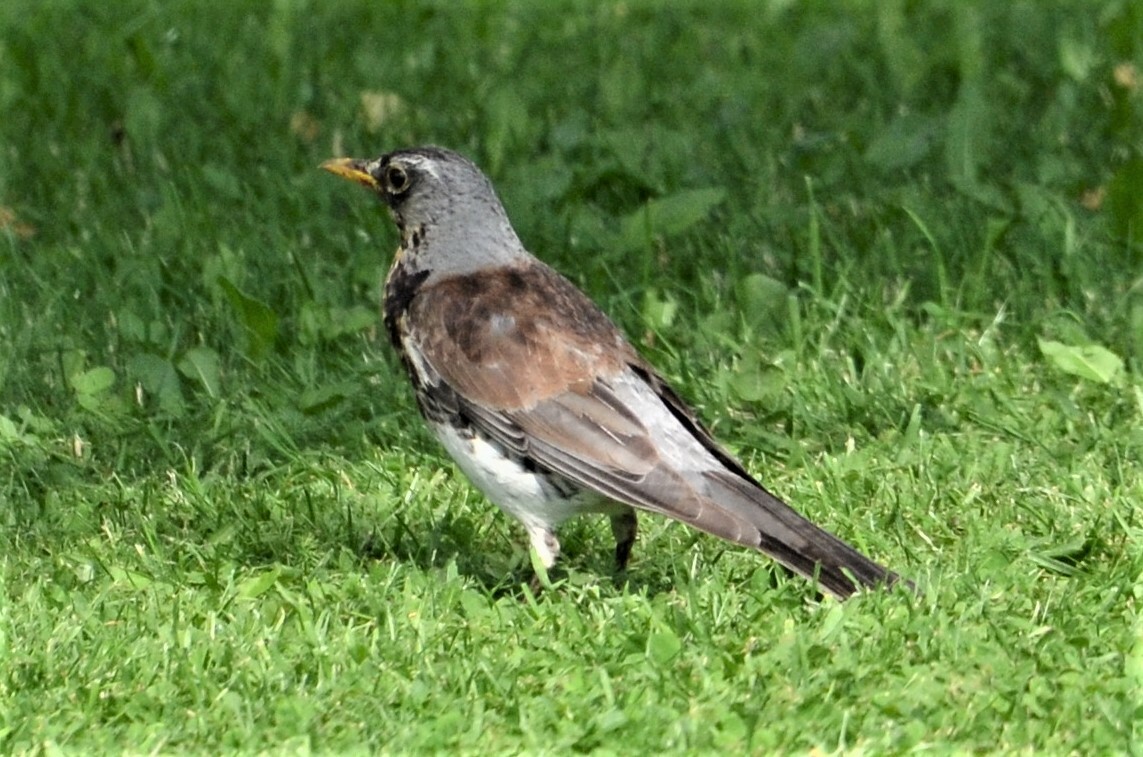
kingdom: Animalia
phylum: Chordata
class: Aves
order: Passeriformes
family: Turdidae
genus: Turdus
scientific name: Turdus pilaris
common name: Fieldfare
